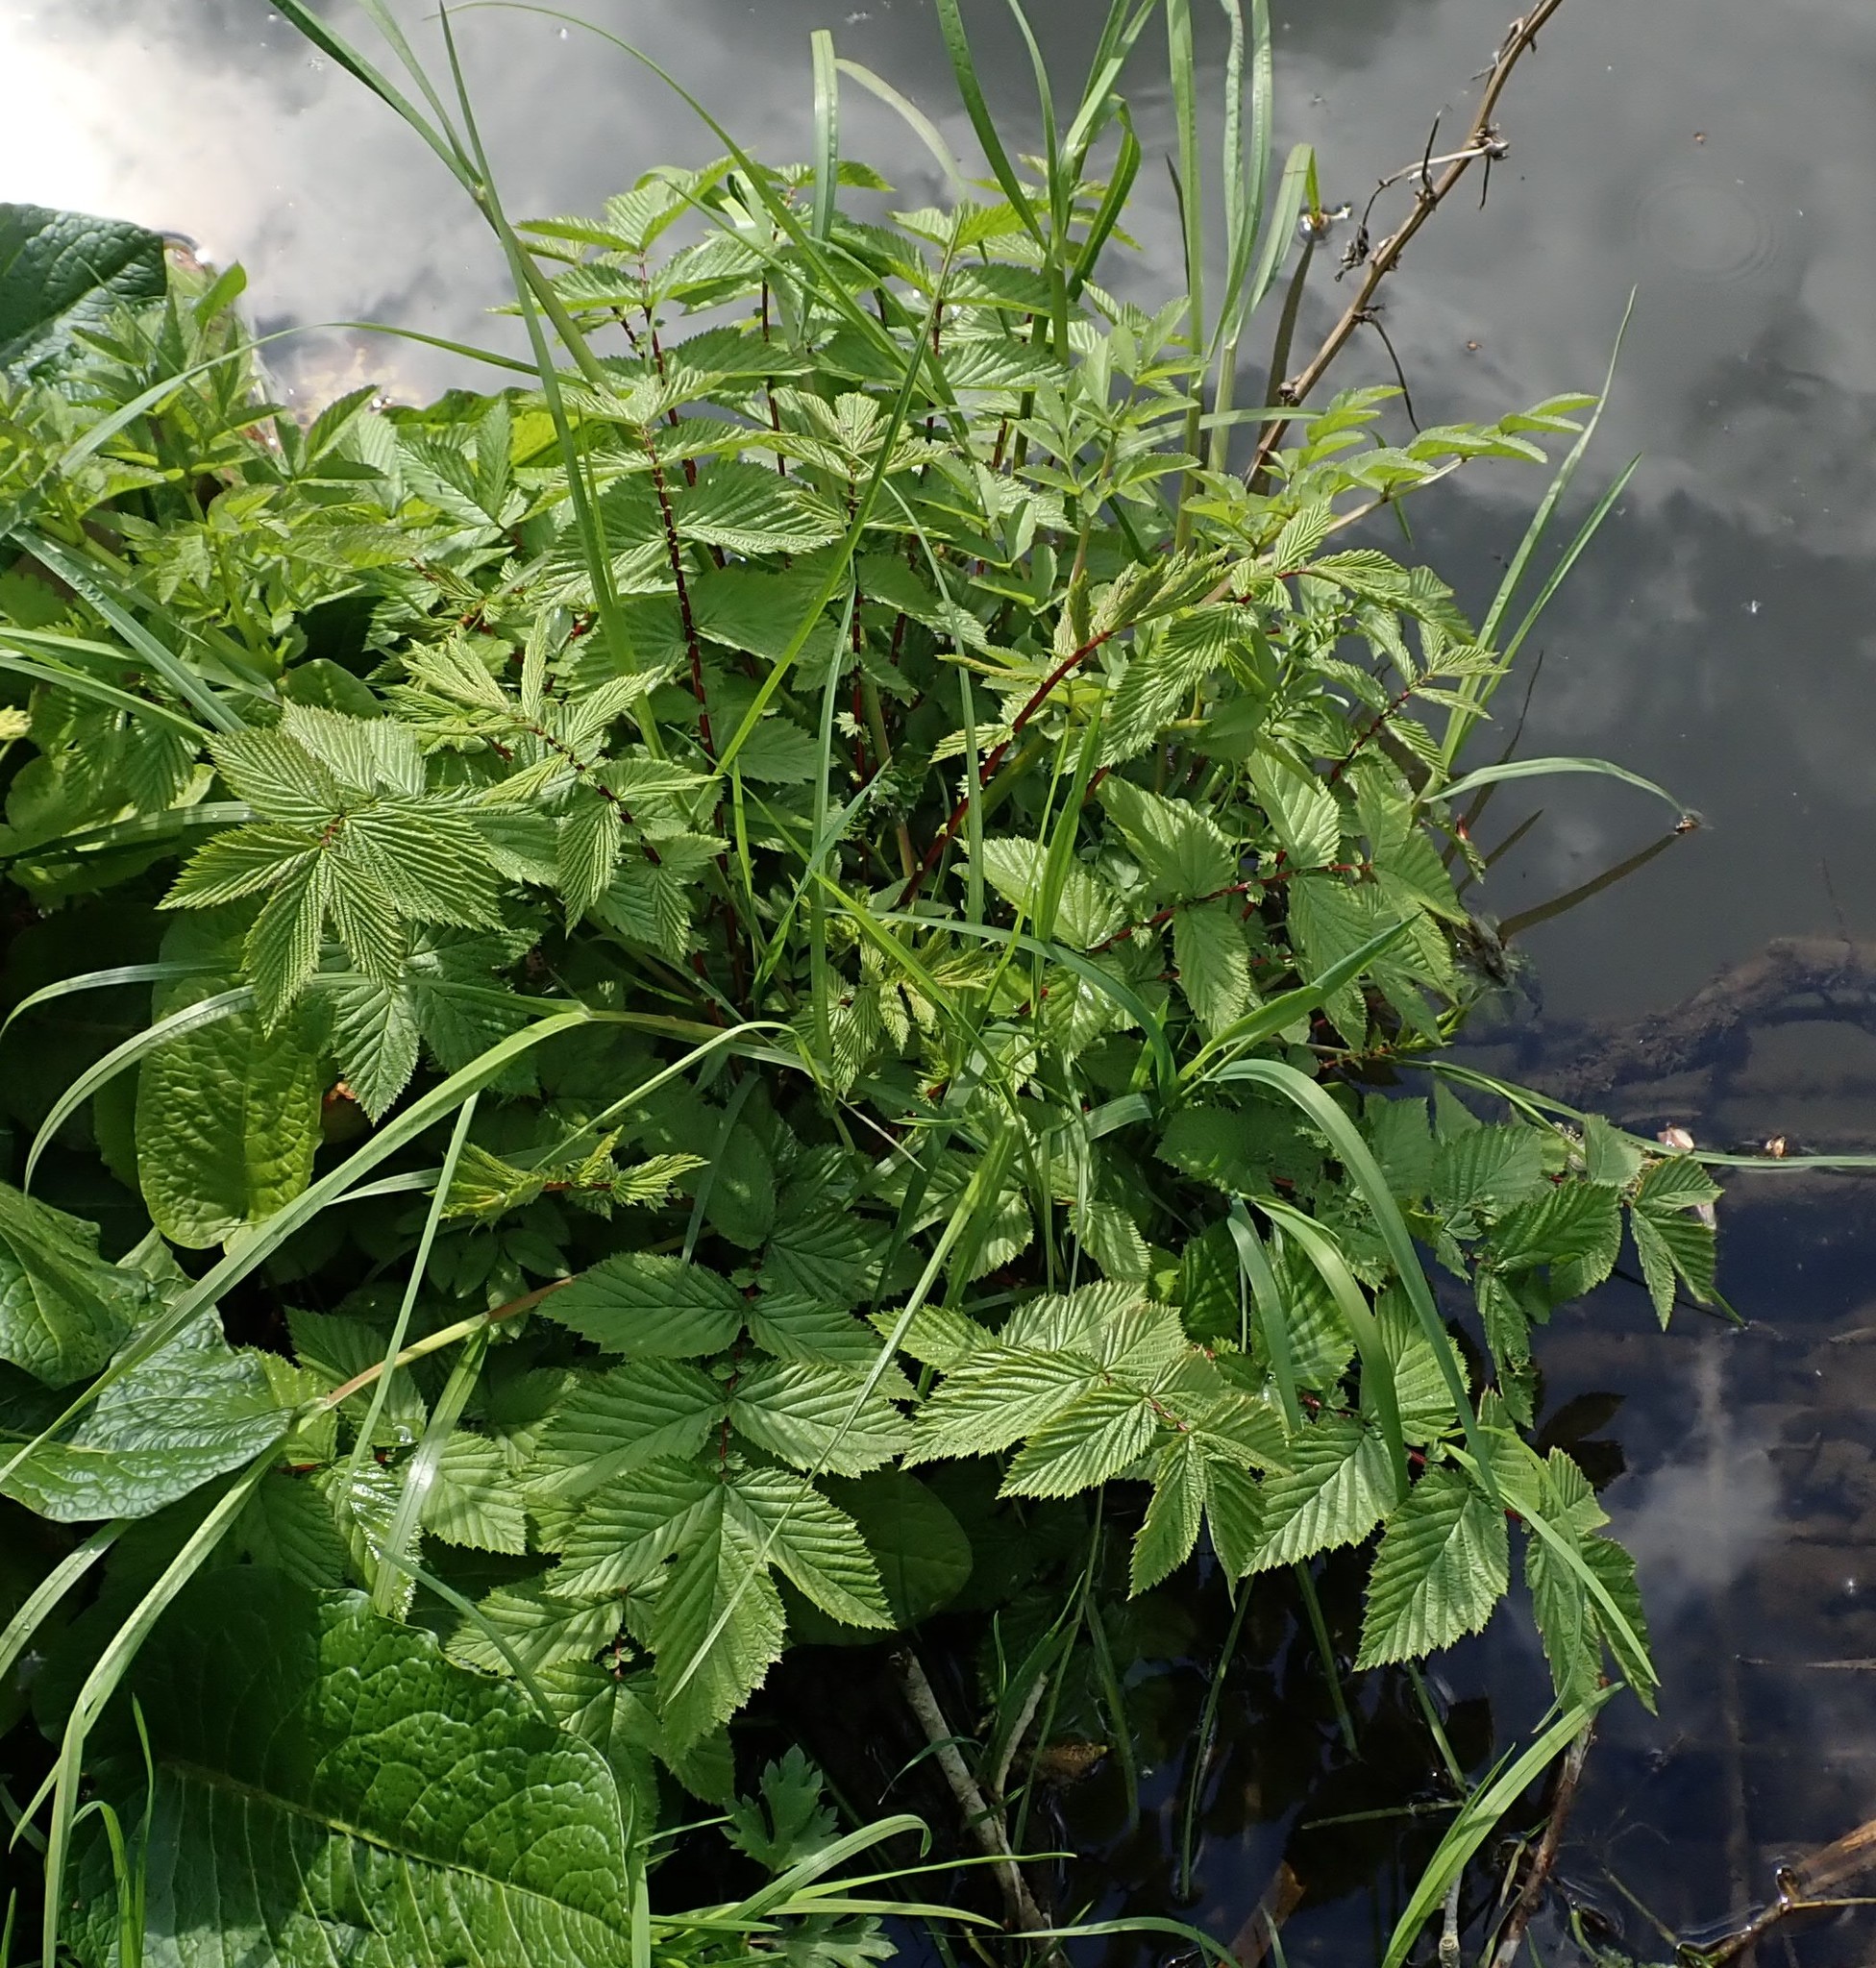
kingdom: Plantae
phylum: Tracheophyta
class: Magnoliopsida
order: Rosales
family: Rosaceae
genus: Filipendula
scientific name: Filipendula ulmaria
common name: Meadowsweet
